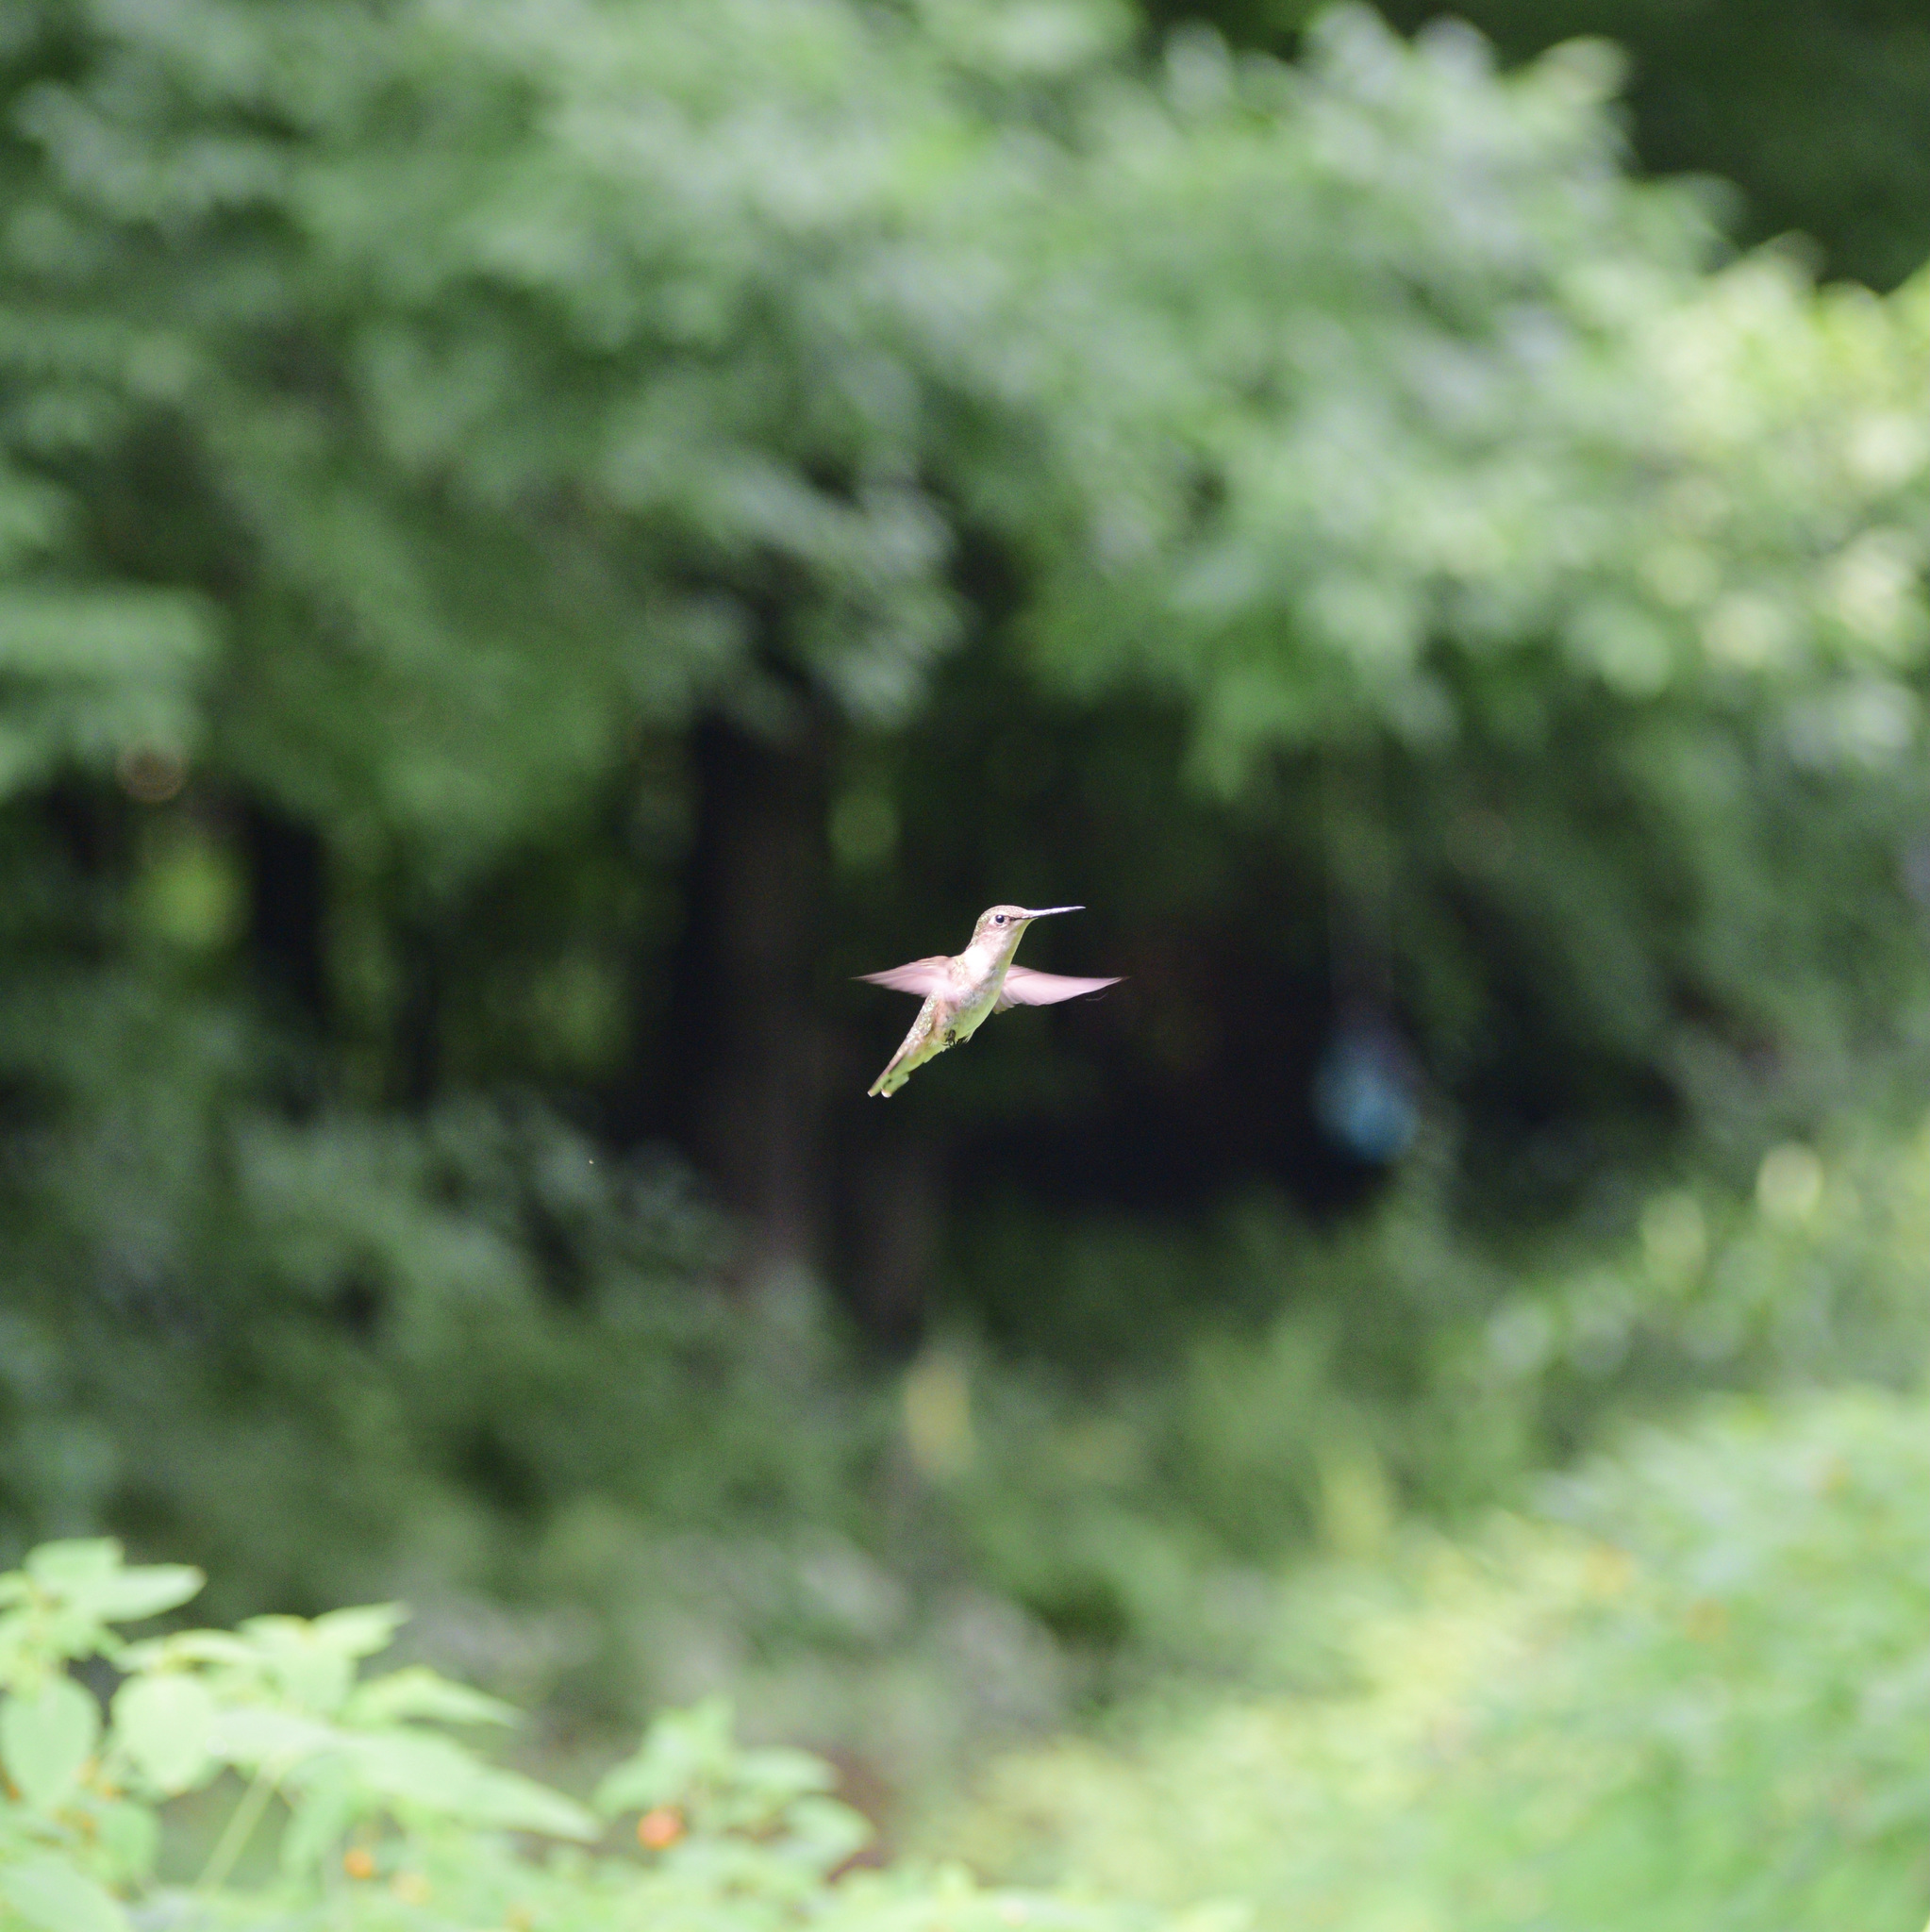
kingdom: Animalia
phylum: Chordata
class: Aves
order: Apodiformes
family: Trochilidae
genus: Archilochus
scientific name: Archilochus colubris
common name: Ruby-throated hummingbird
